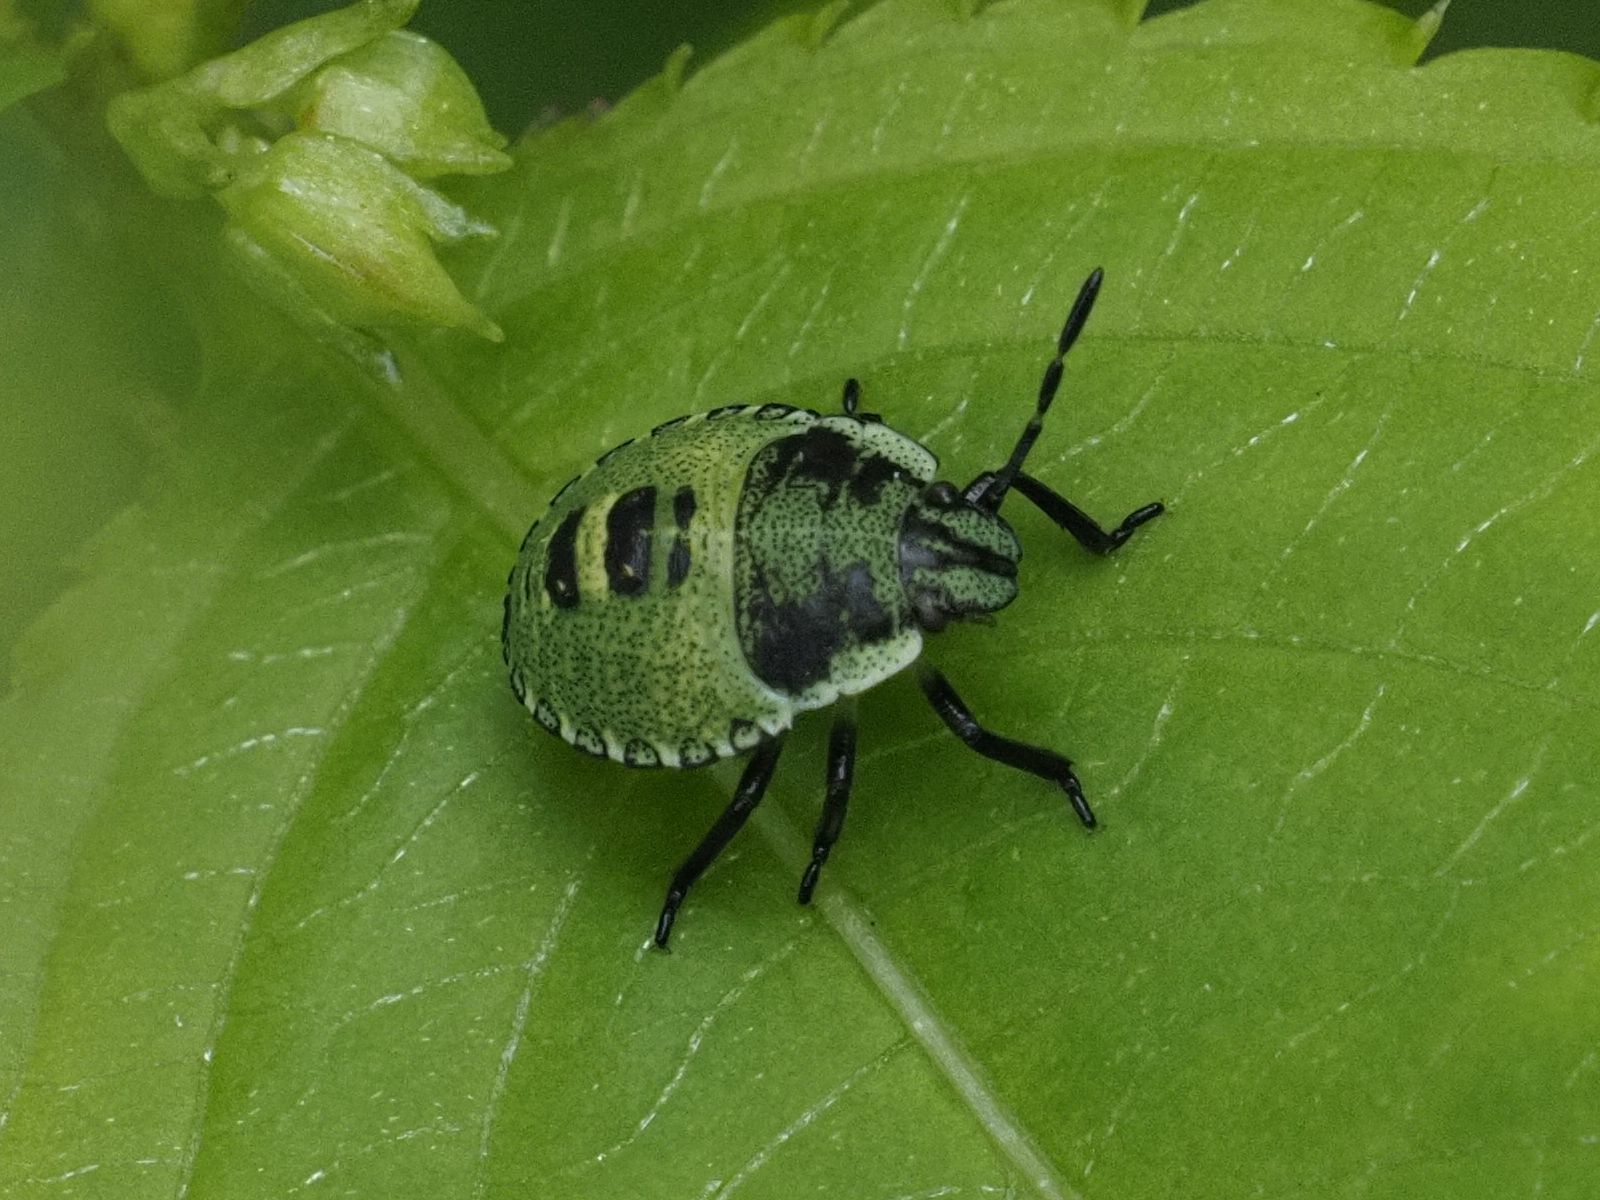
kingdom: Animalia
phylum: Arthropoda
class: Insecta
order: Hemiptera
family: Pentatomidae
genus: Palomena
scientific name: Palomena prasina
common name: Green shieldbug
